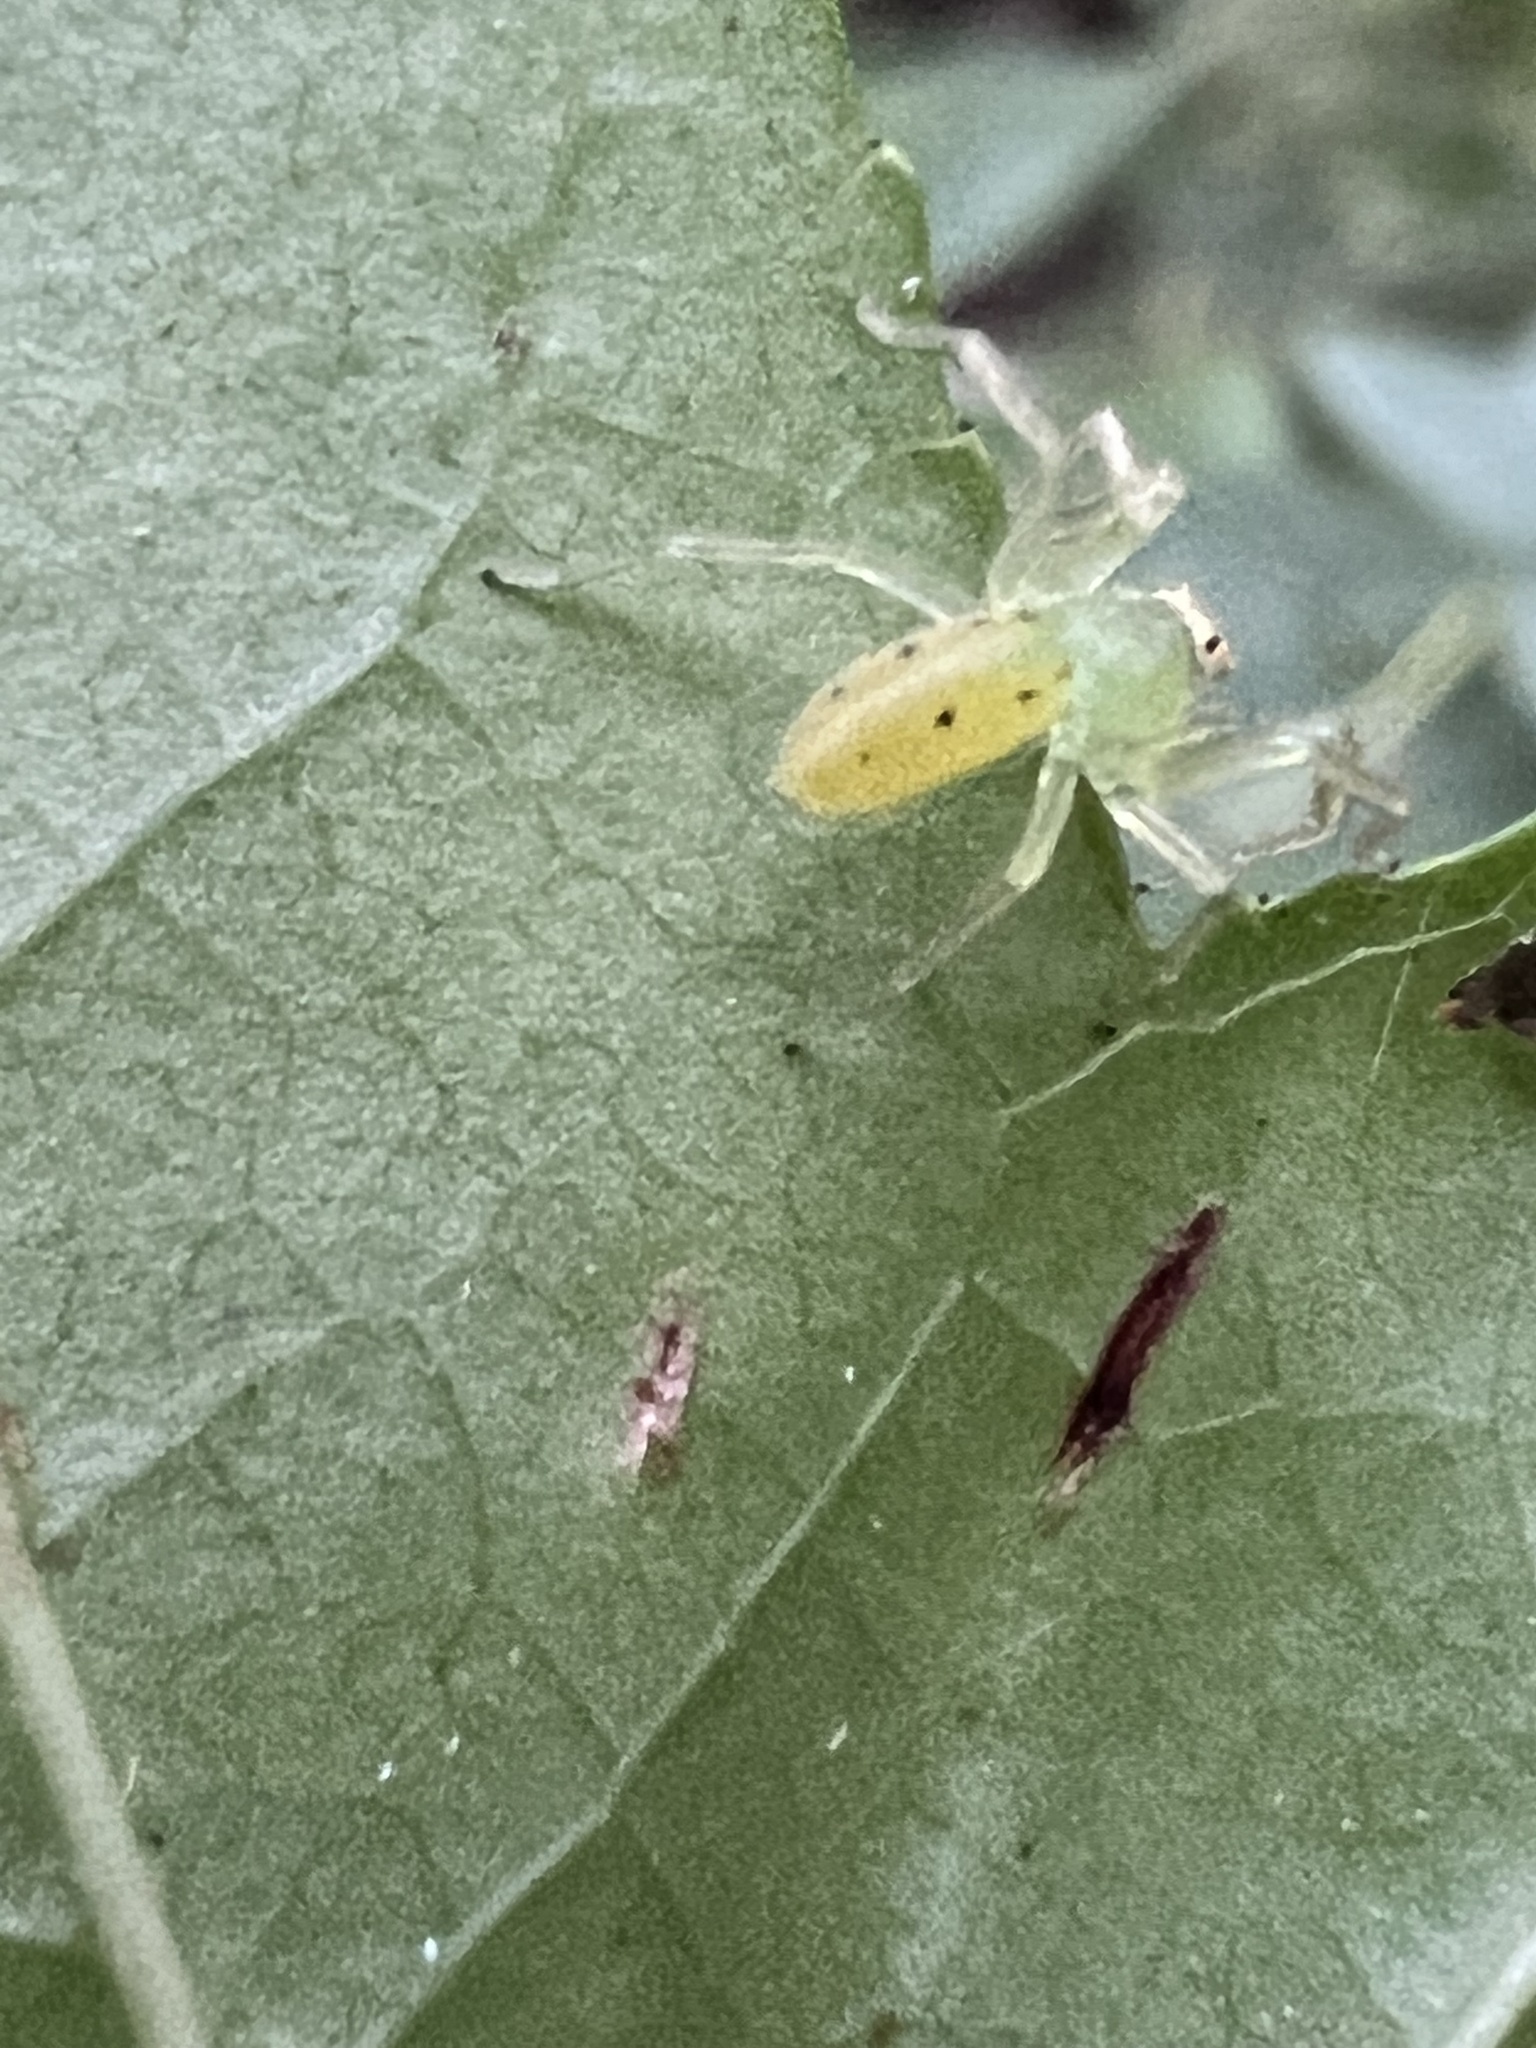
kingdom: Animalia
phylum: Arthropoda
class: Arachnida
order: Araneae
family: Salticidae
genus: Lyssomanes
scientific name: Lyssomanes viridis
